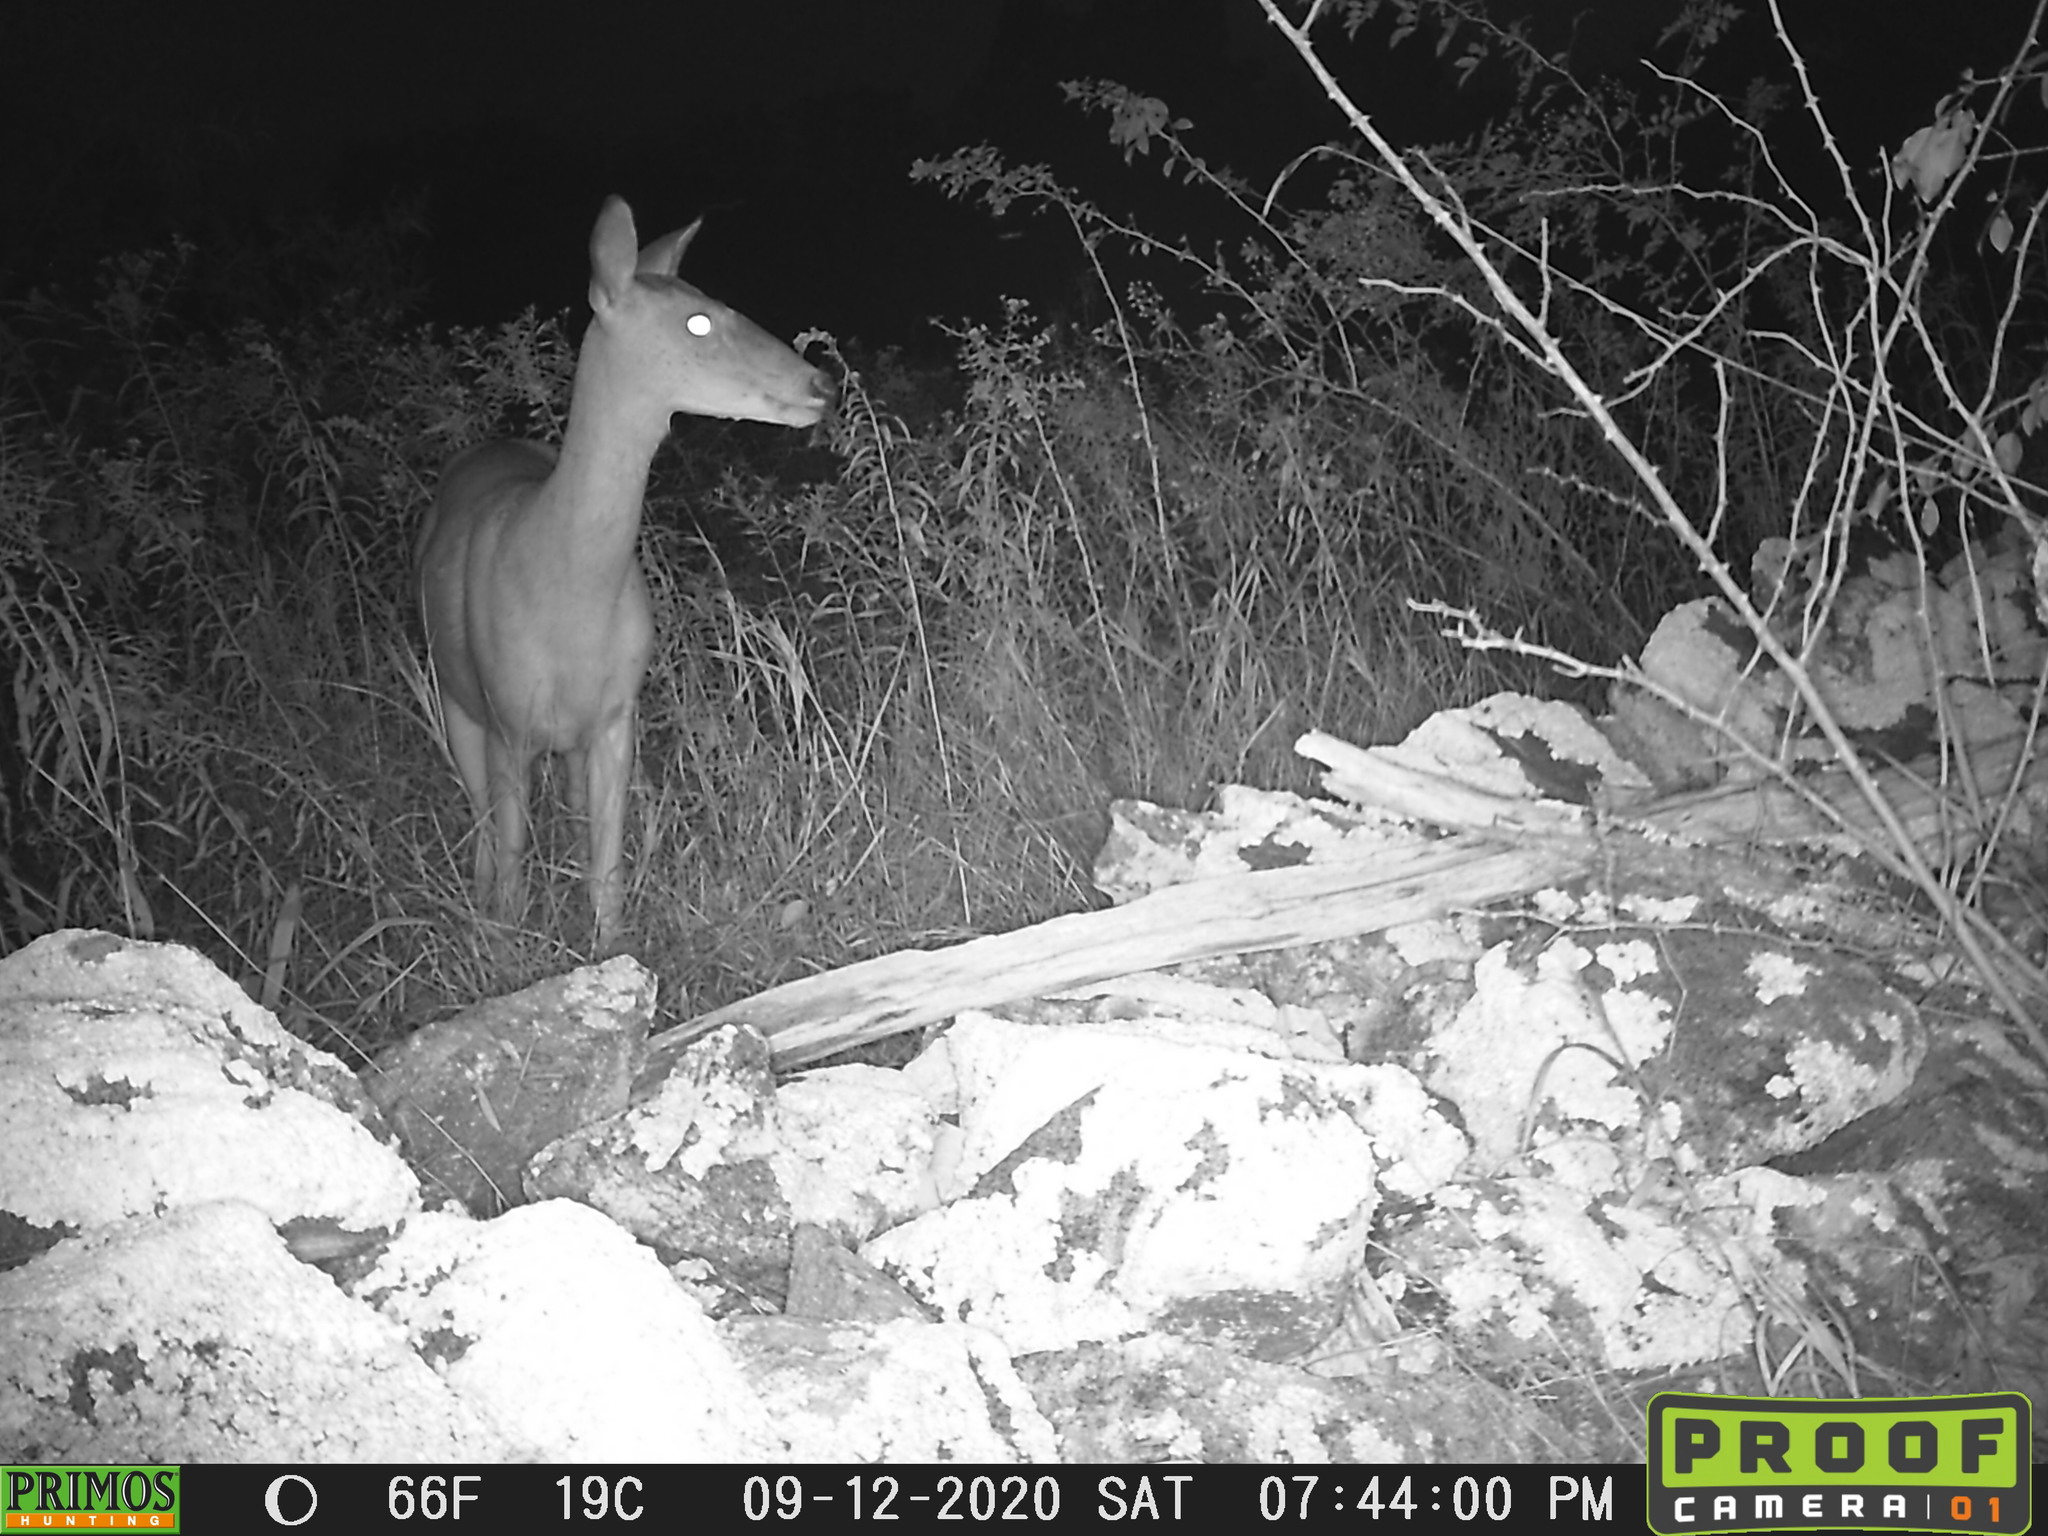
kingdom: Animalia
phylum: Chordata
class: Mammalia
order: Artiodactyla
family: Cervidae
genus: Odocoileus
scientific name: Odocoileus virginianus
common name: White-tailed deer
